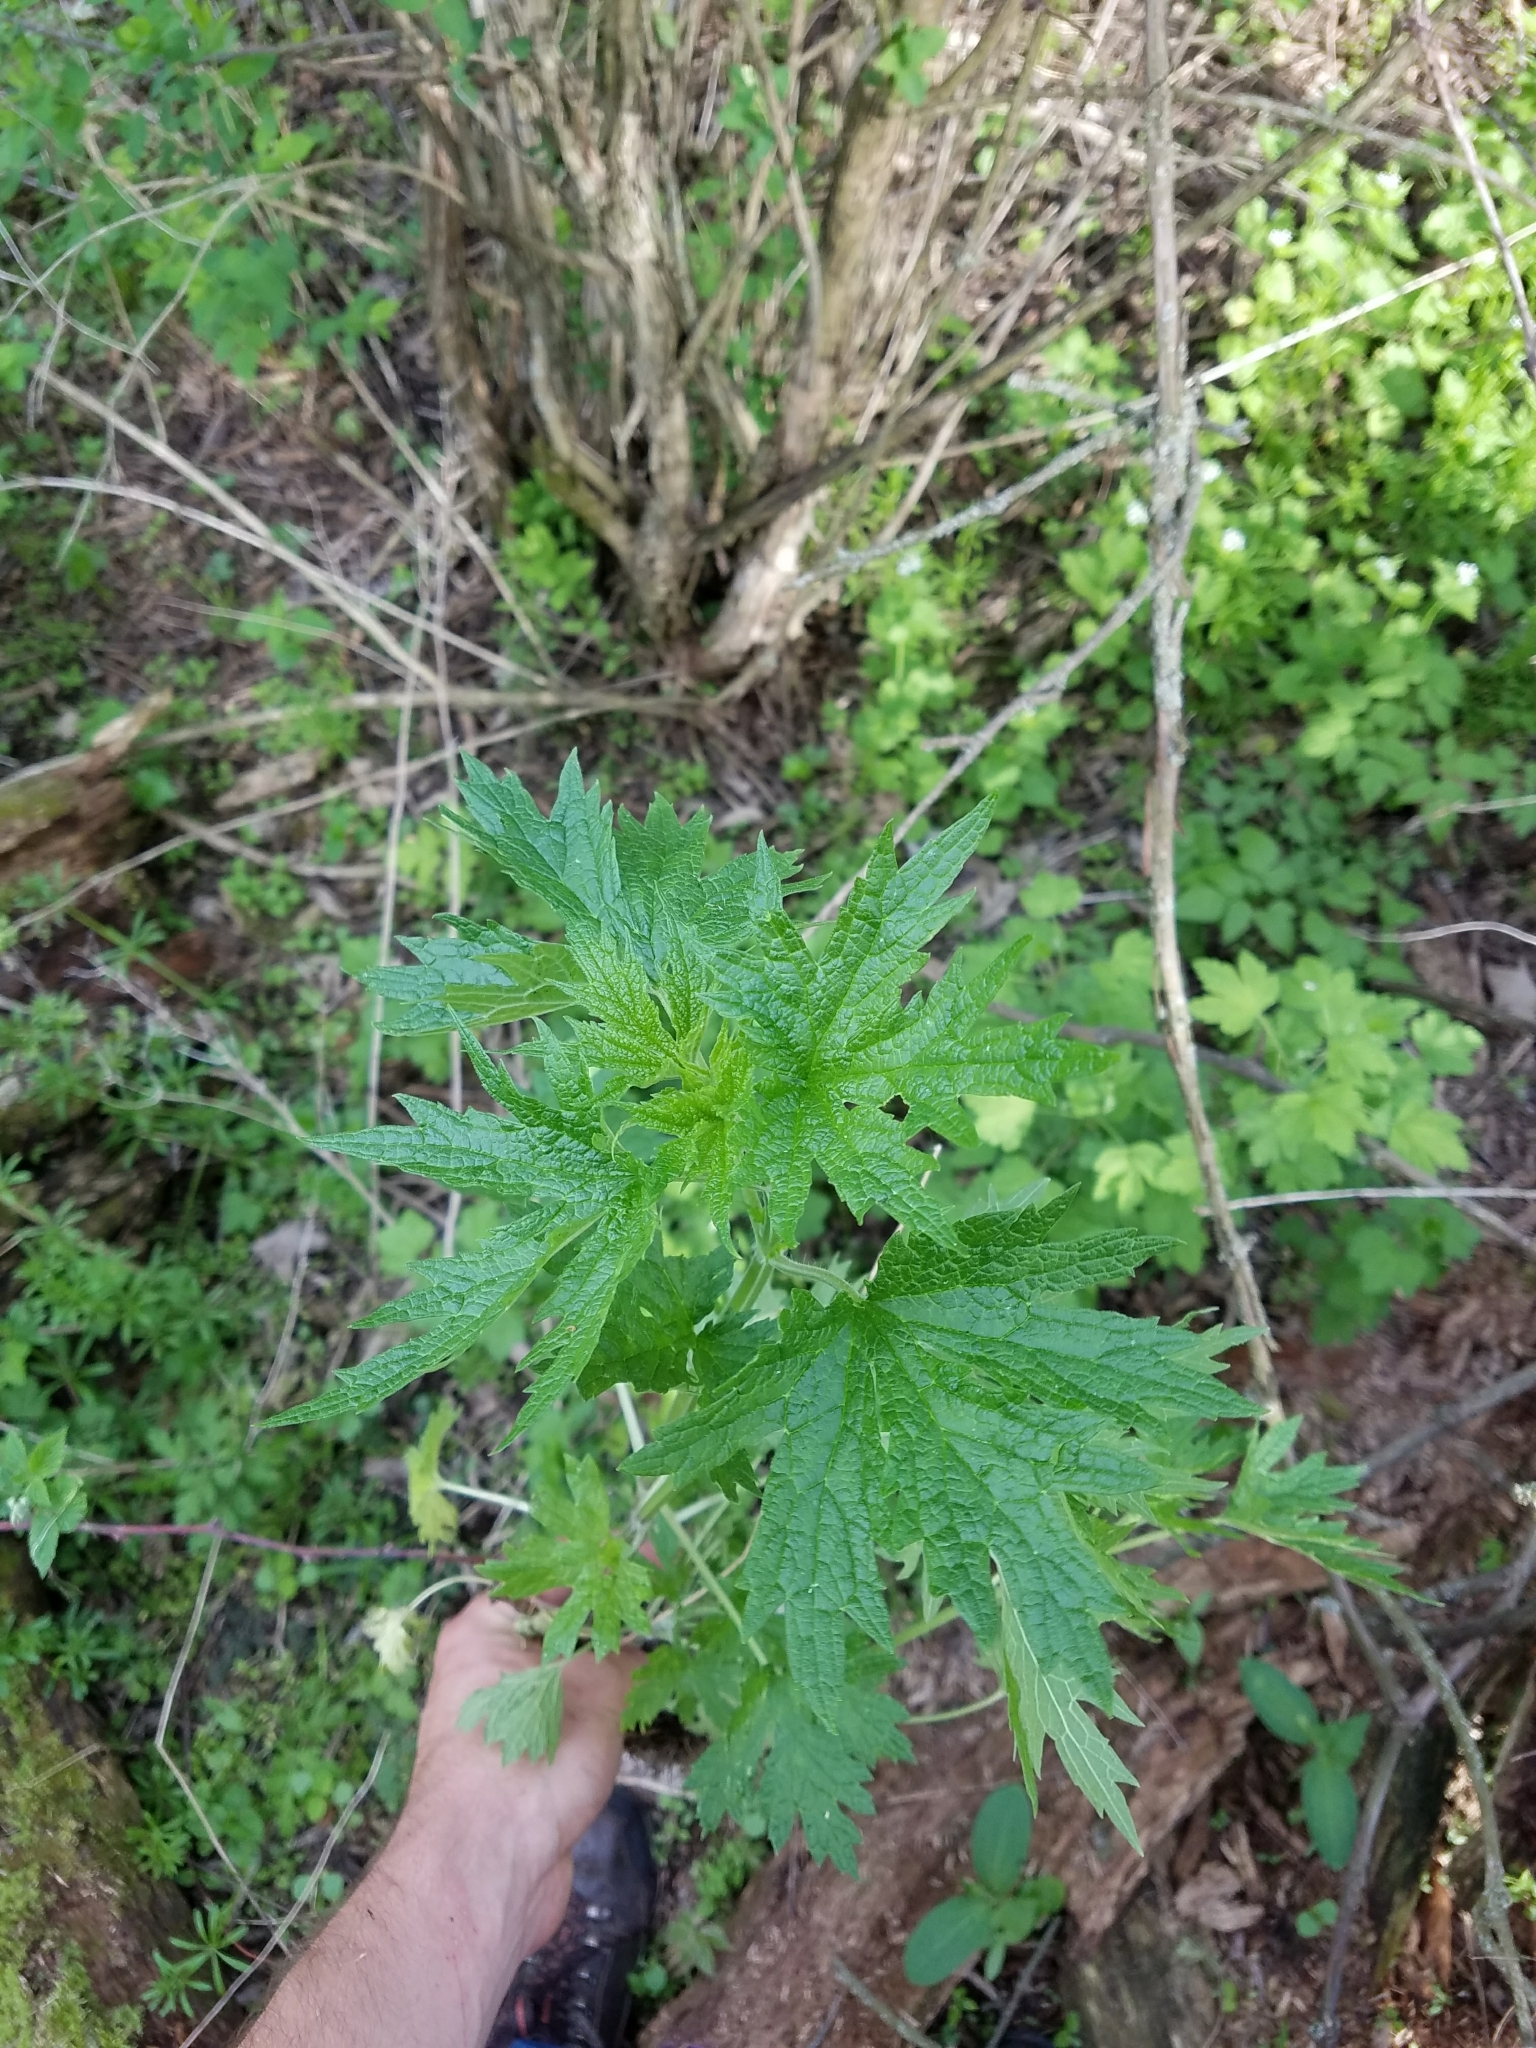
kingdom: Plantae
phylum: Tracheophyta
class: Magnoliopsida
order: Lamiales
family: Lamiaceae
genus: Leonurus
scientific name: Leonurus cardiaca
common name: Motherwort
